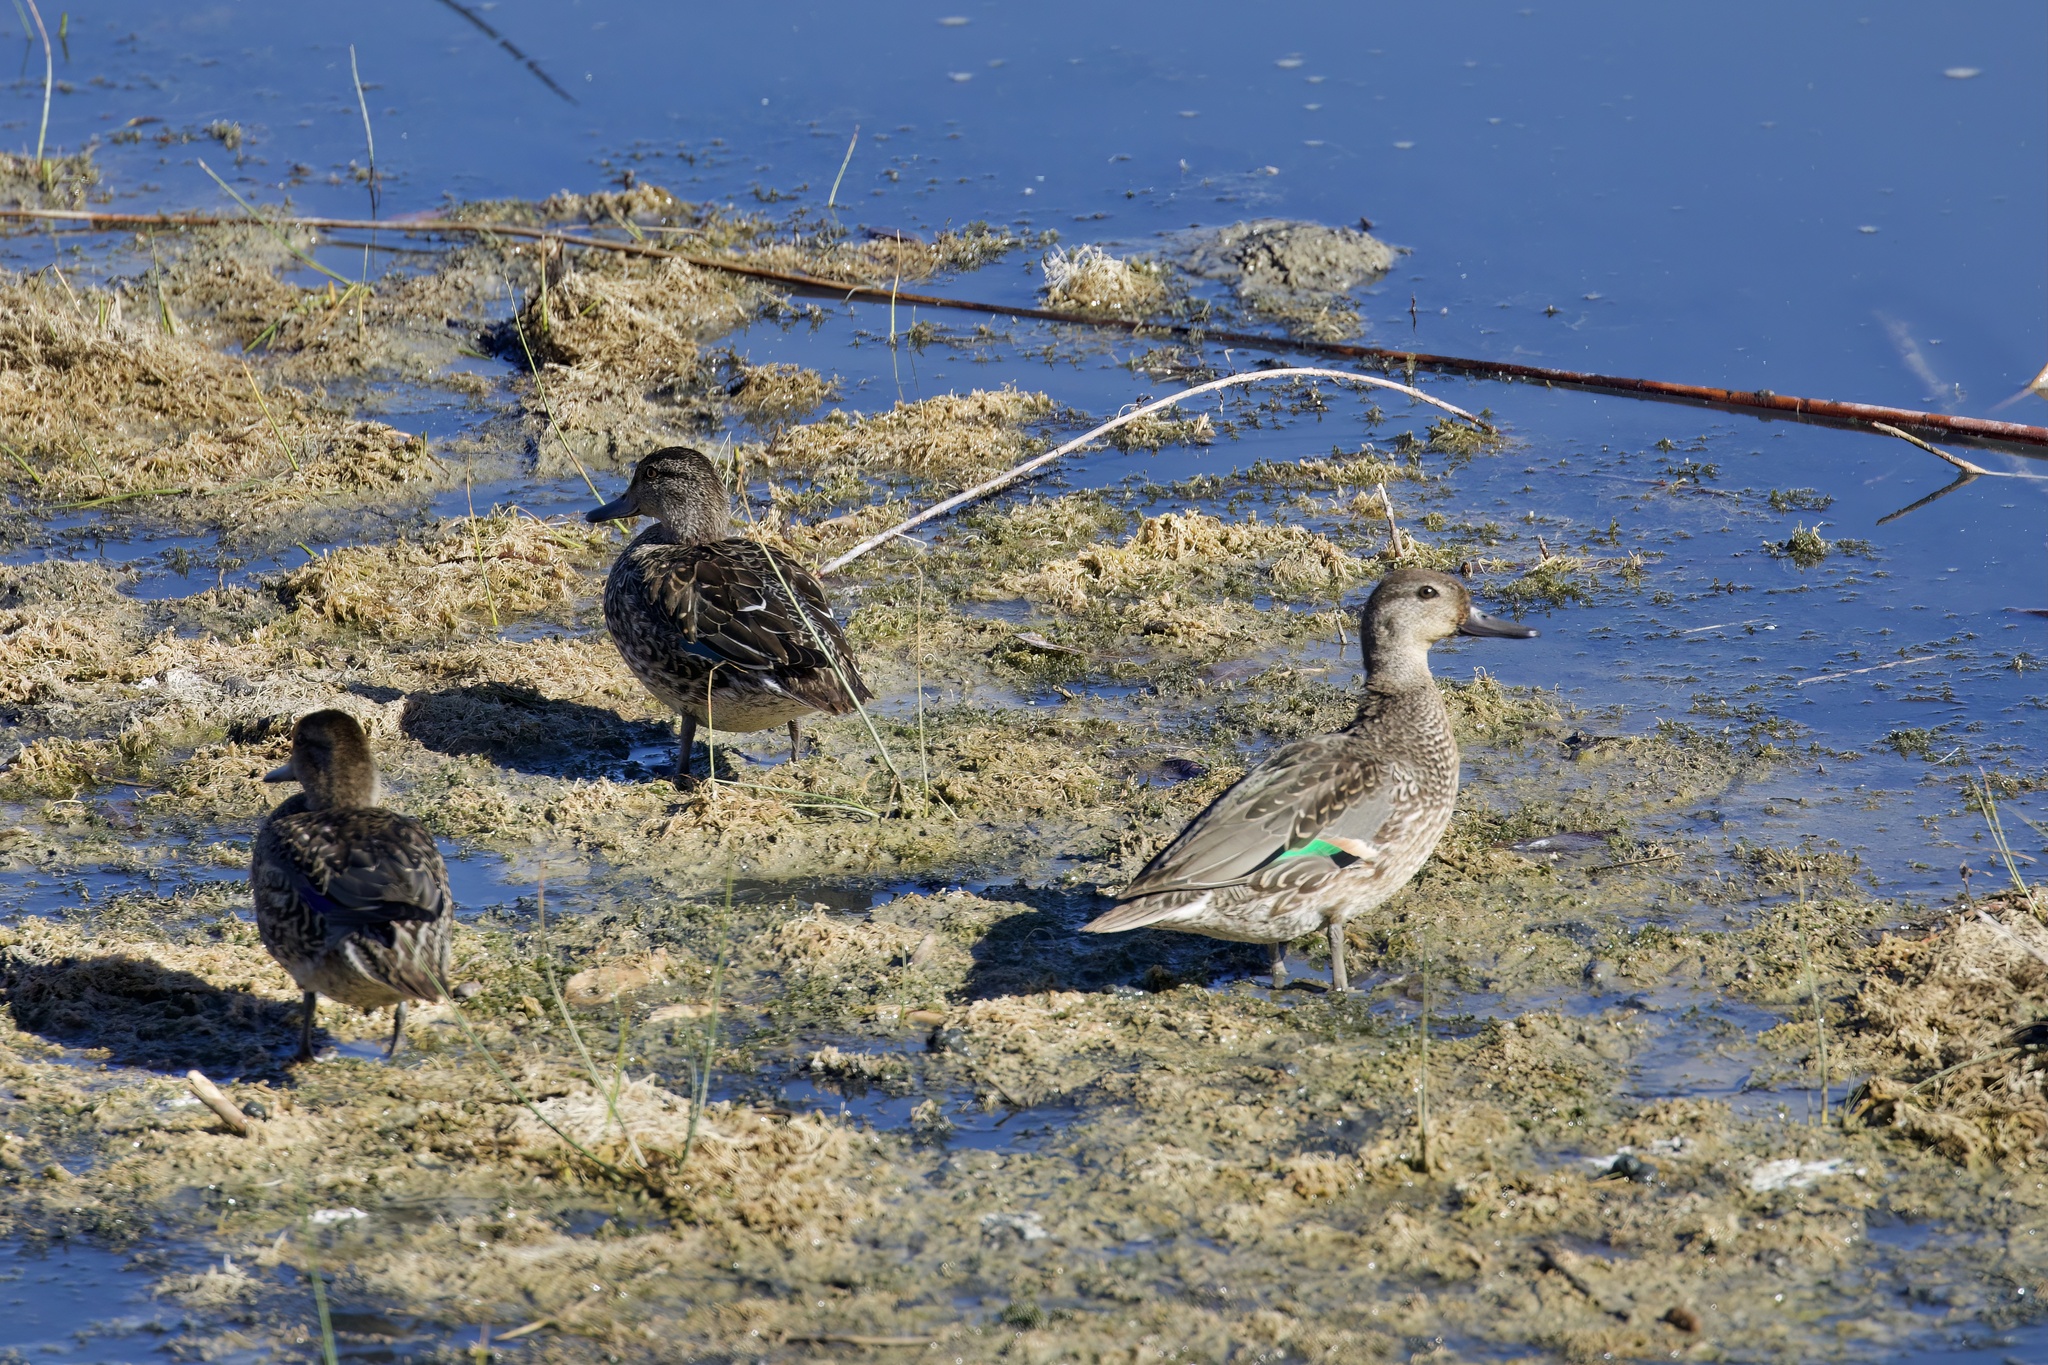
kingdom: Animalia
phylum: Chordata
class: Aves
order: Anseriformes
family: Anatidae
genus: Anas
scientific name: Anas crecca
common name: Eurasian teal
